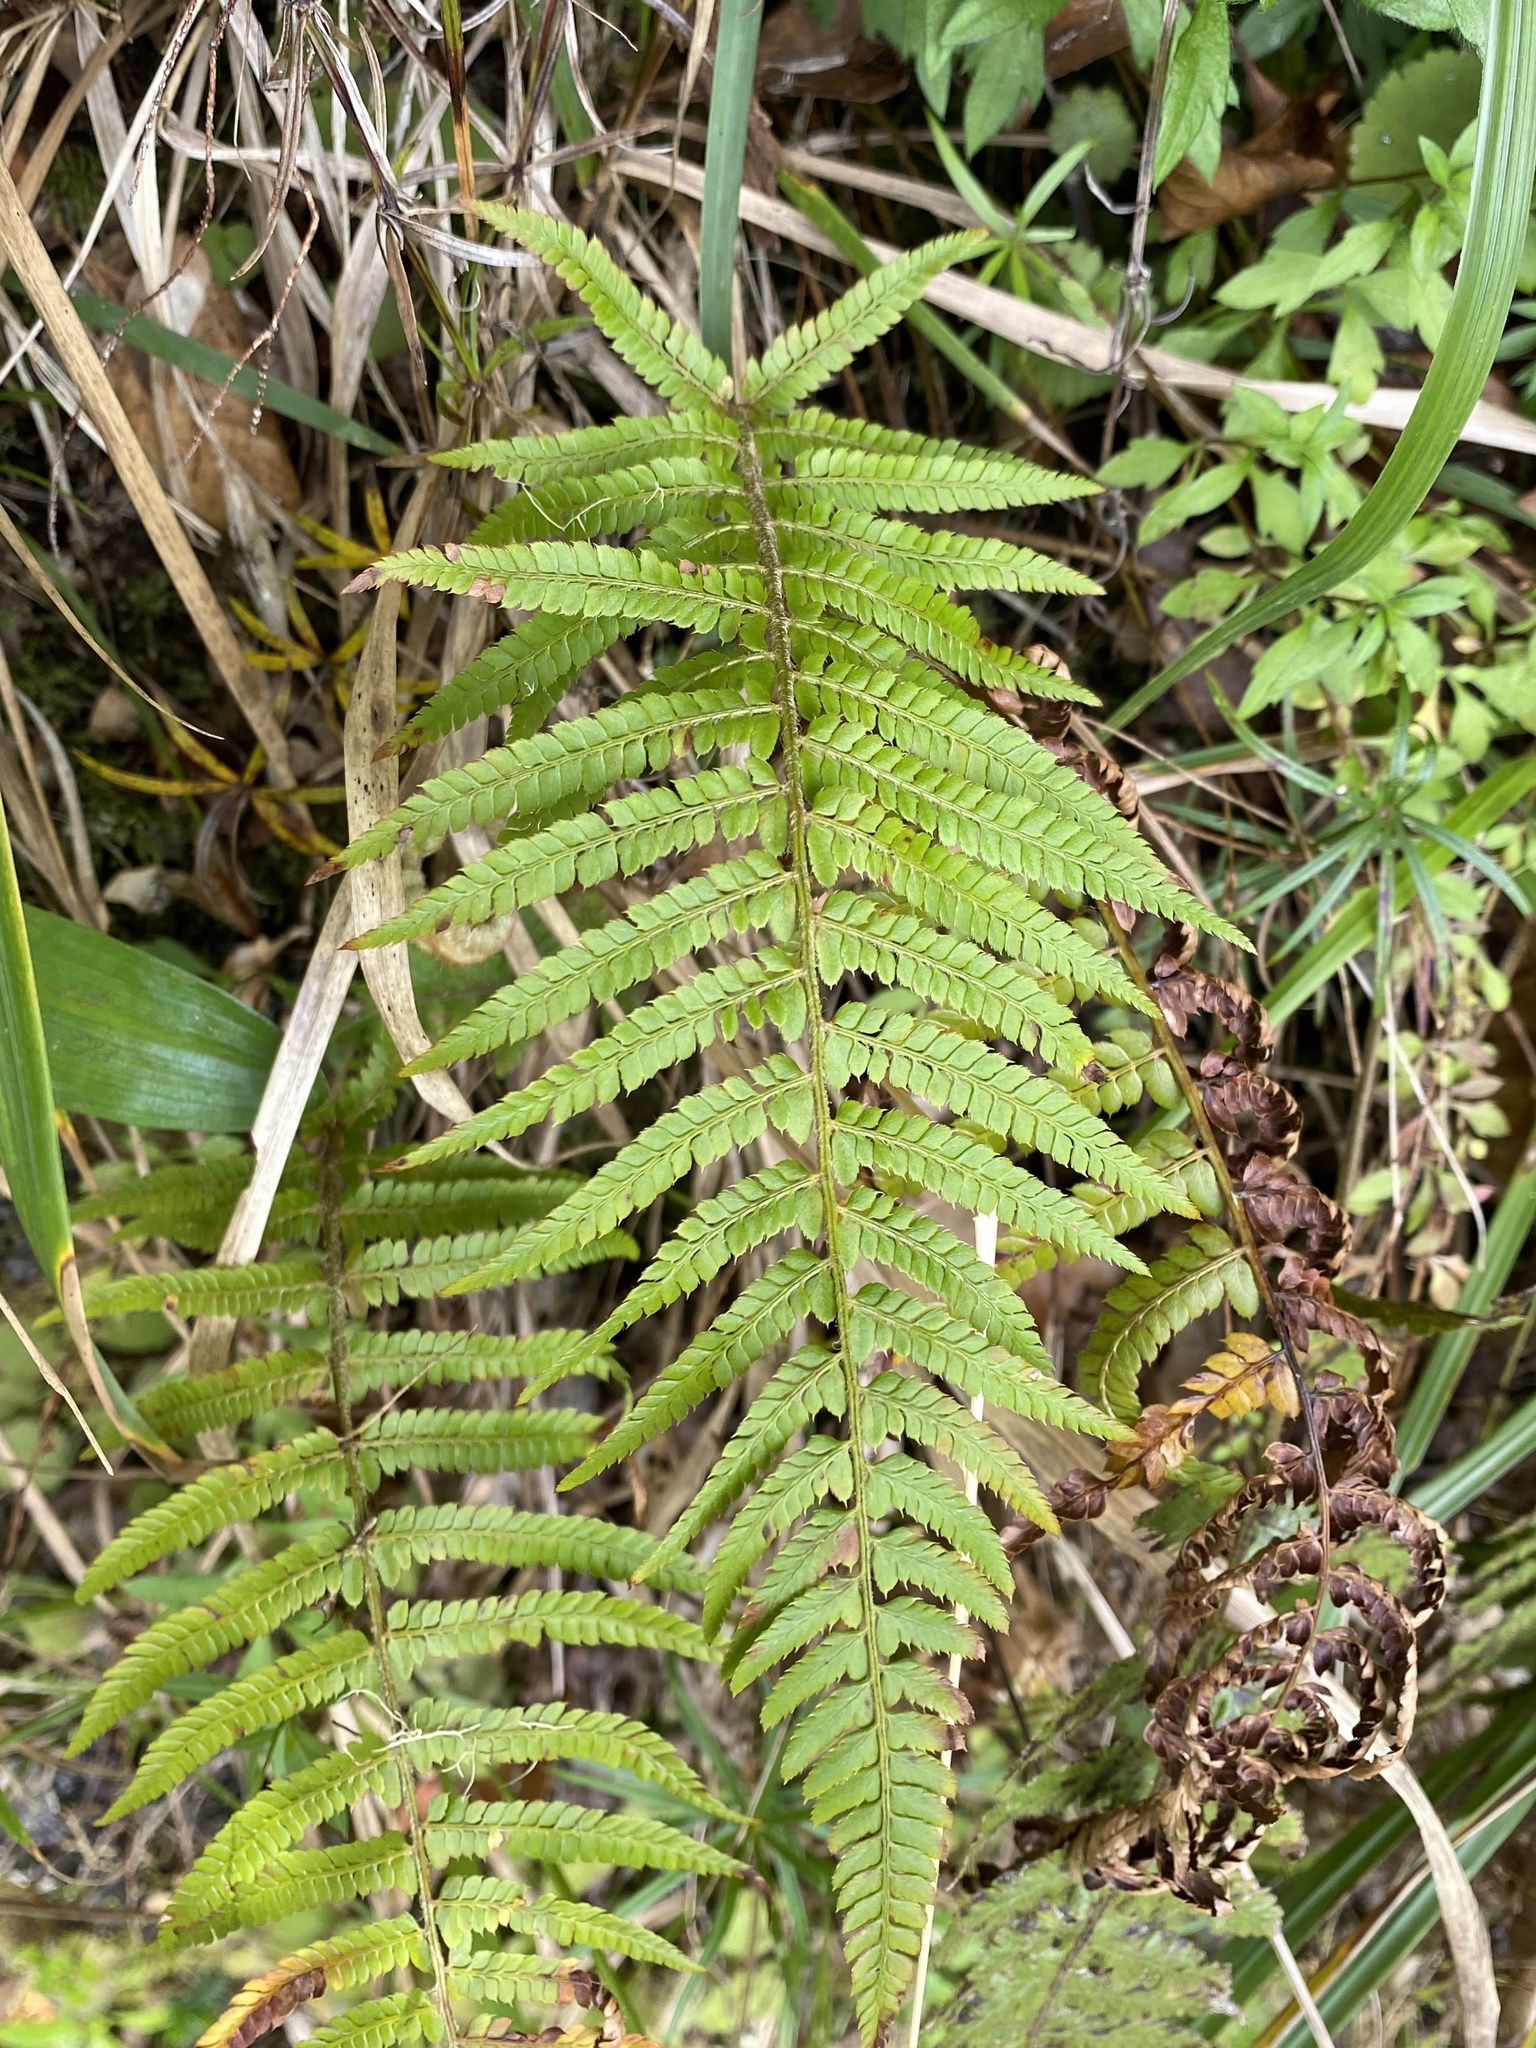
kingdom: Plantae
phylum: Tracheophyta
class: Polypodiopsida
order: Polypodiales
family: Dryopteridaceae
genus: Polystichum
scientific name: Polystichum setiferum
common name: Soft shield-fern
